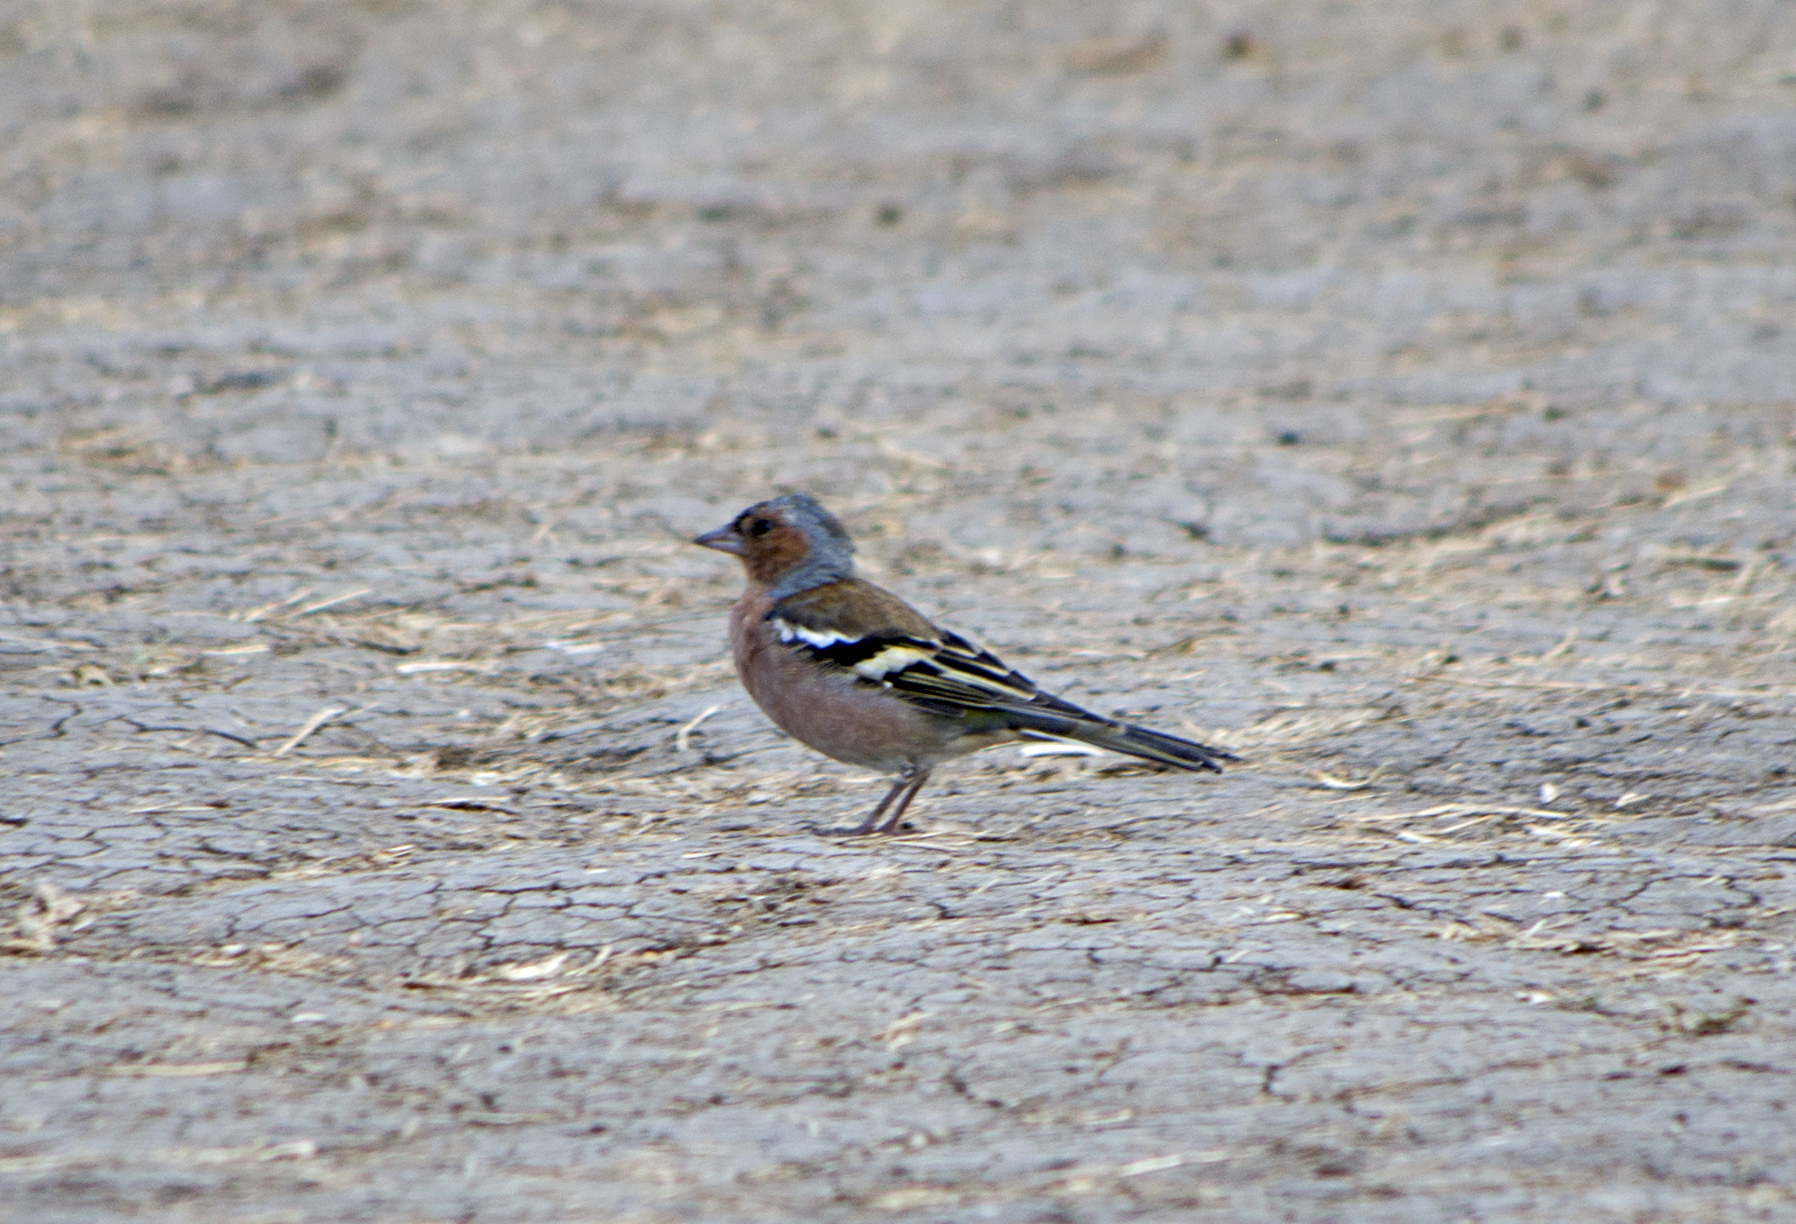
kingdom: Animalia
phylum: Chordata
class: Aves
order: Passeriformes
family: Fringillidae
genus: Fringilla
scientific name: Fringilla coelebs
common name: Common chaffinch
